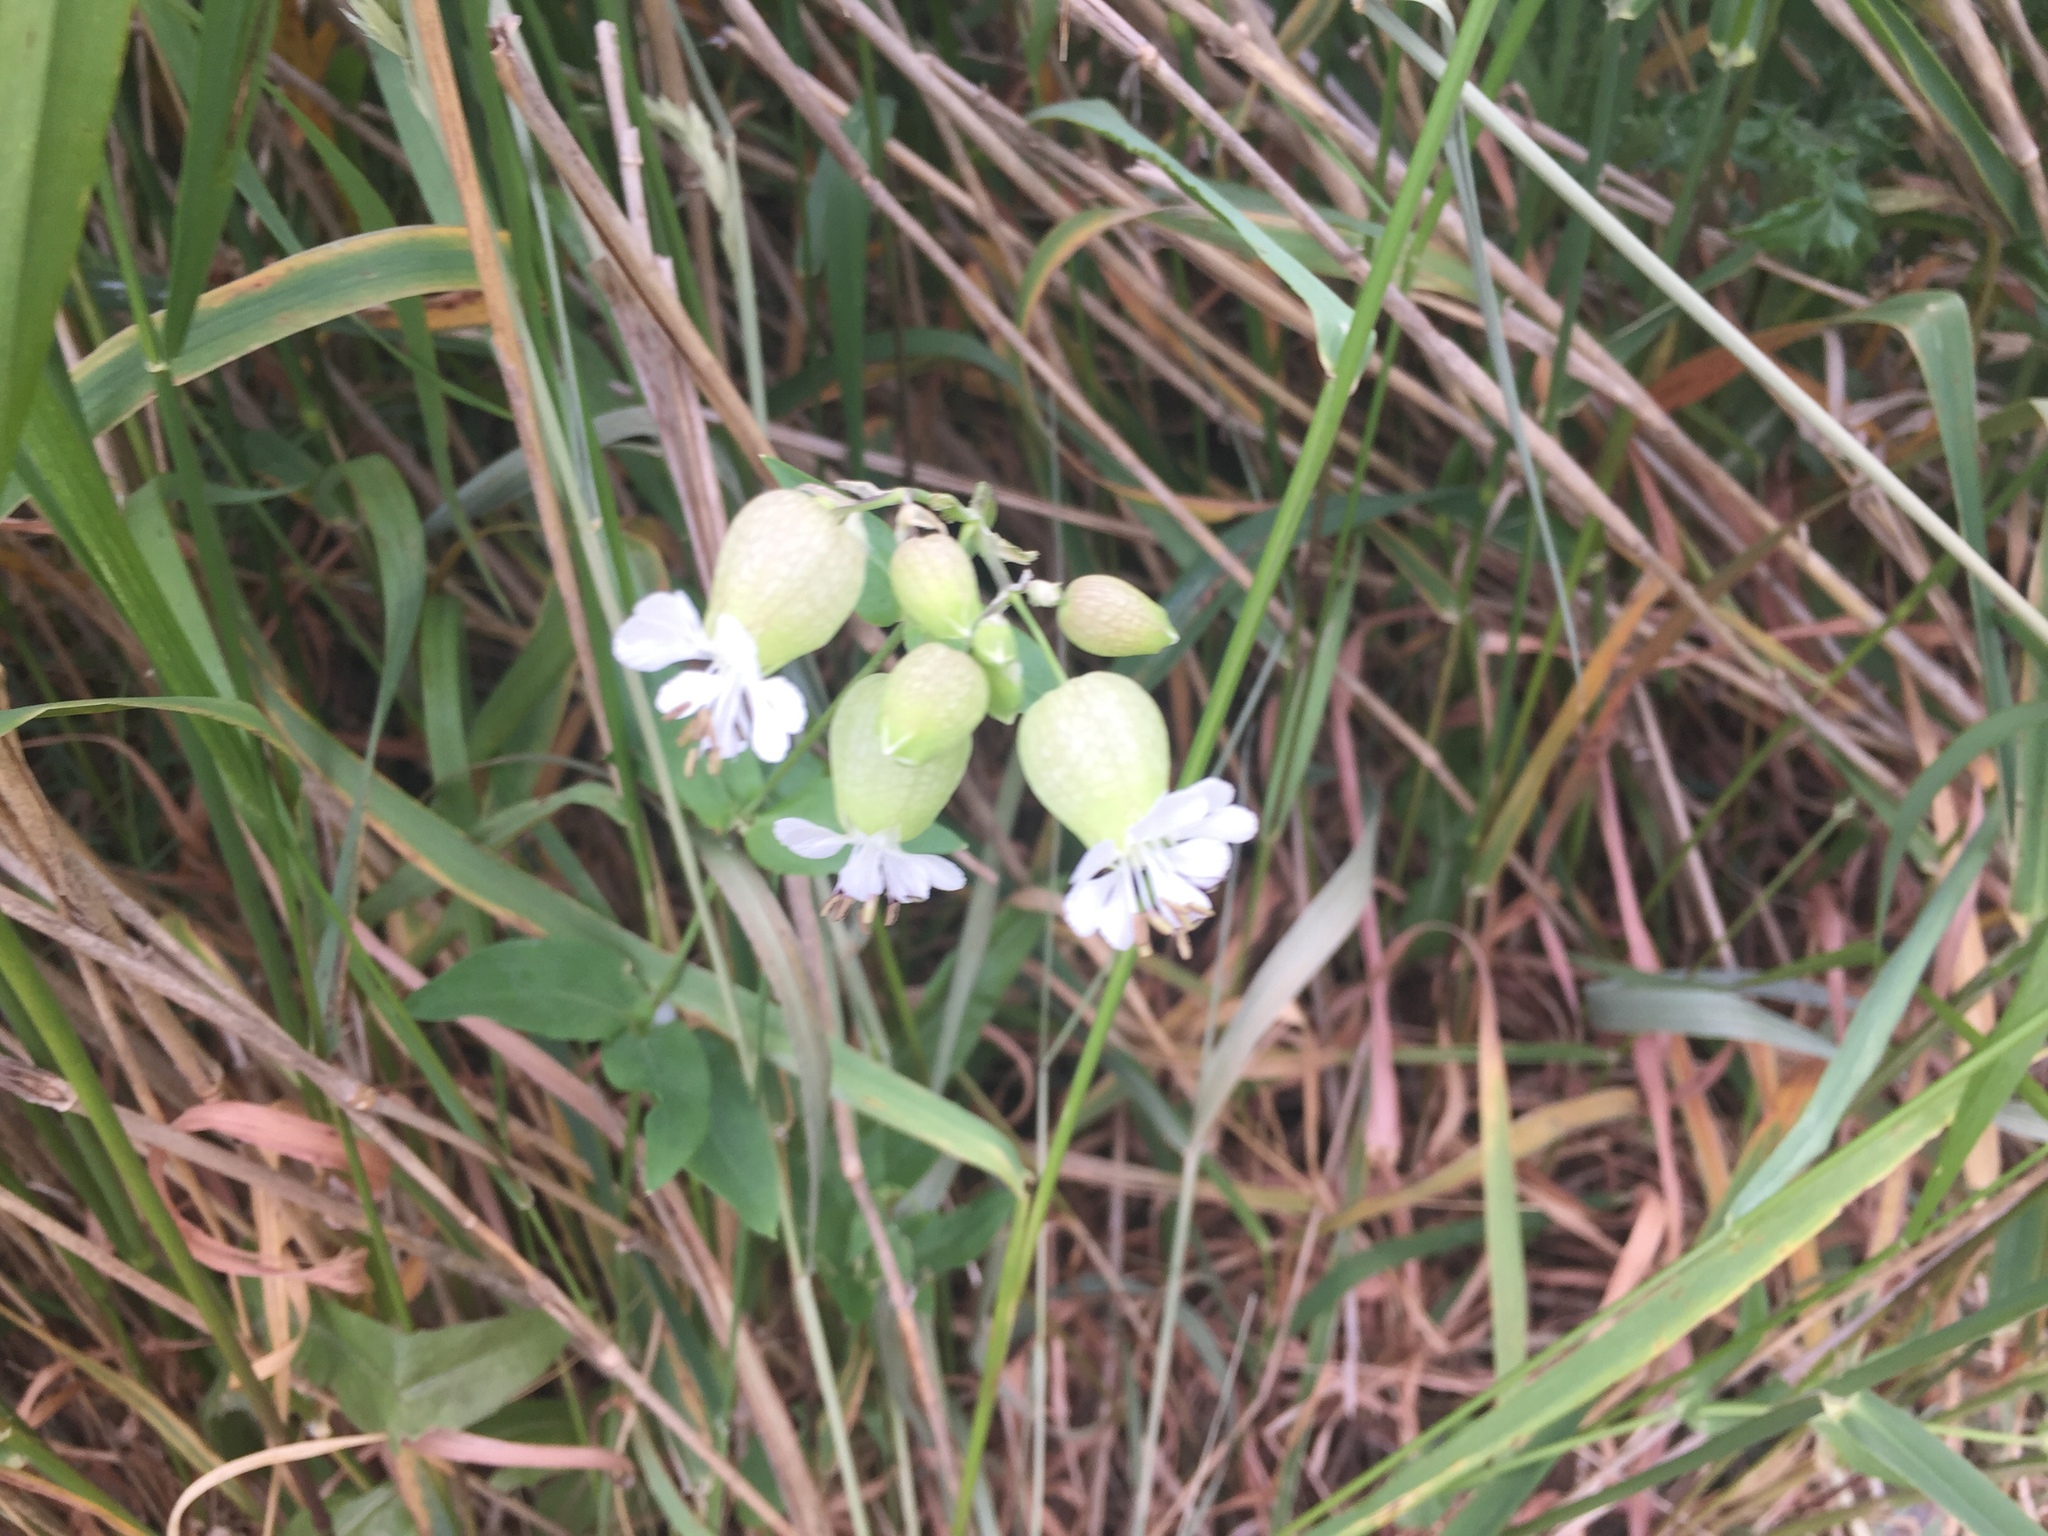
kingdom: Plantae
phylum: Tracheophyta
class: Magnoliopsida
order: Caryophyllales
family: Caryophyllaceae
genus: Silene
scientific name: Silene vulgaris
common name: Bladder campion
